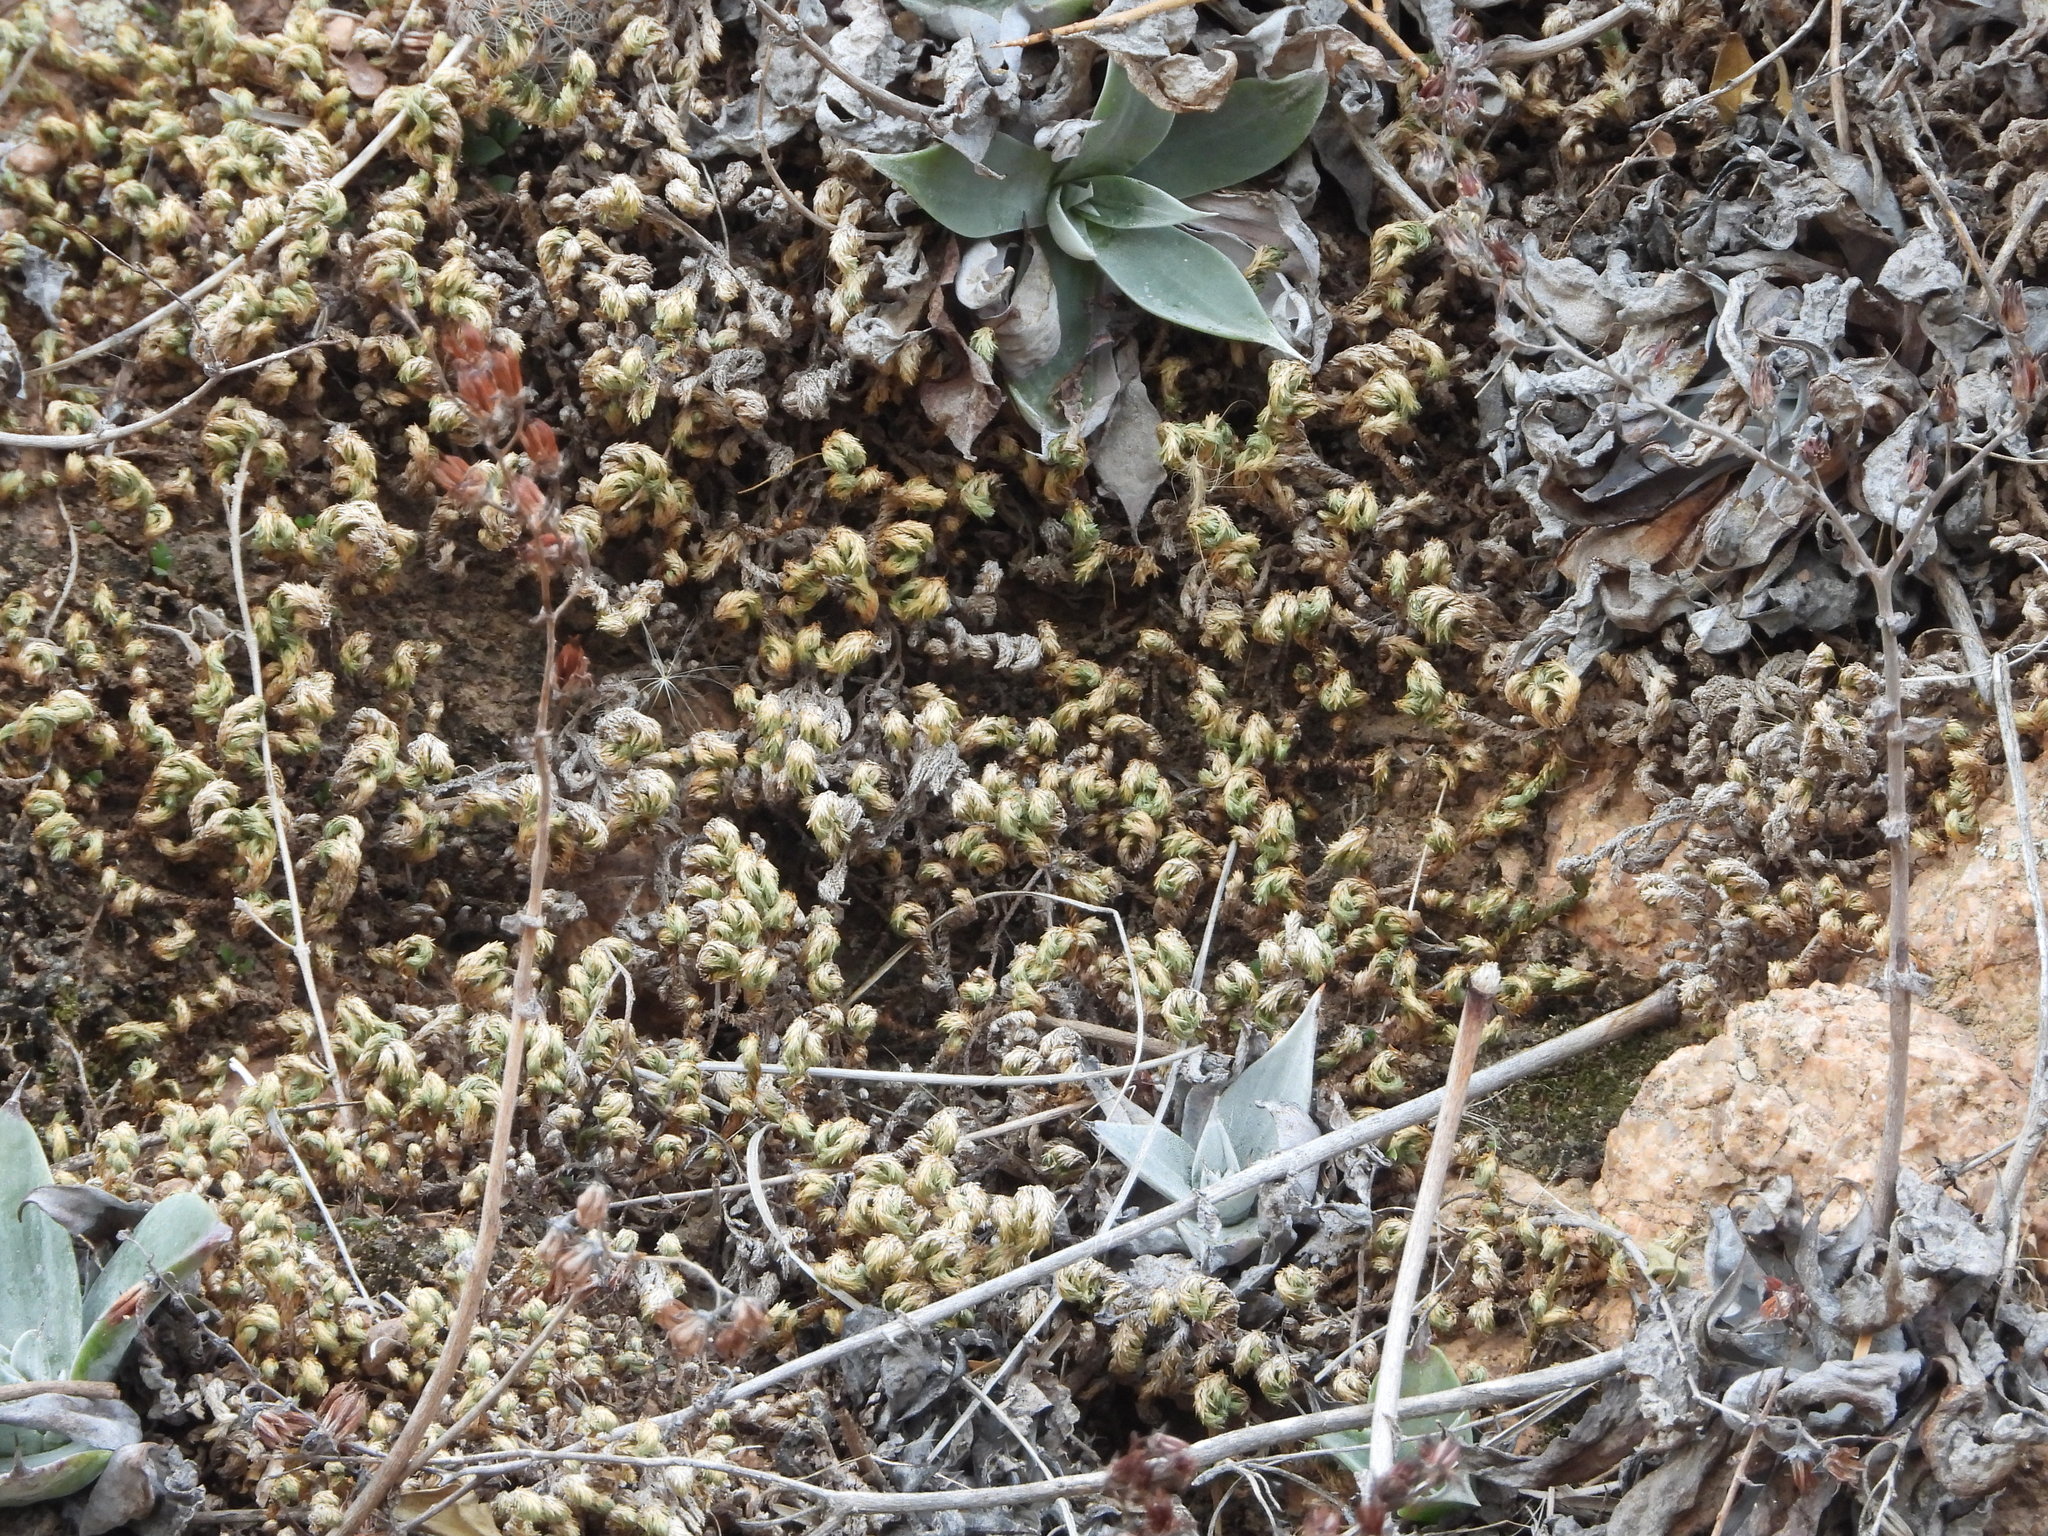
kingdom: Plantae
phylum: Tracheophyta
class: Magnoliopsida
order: Saxifragales
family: Crassulaceae
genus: Dudleya
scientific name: Dudleya arizonica
